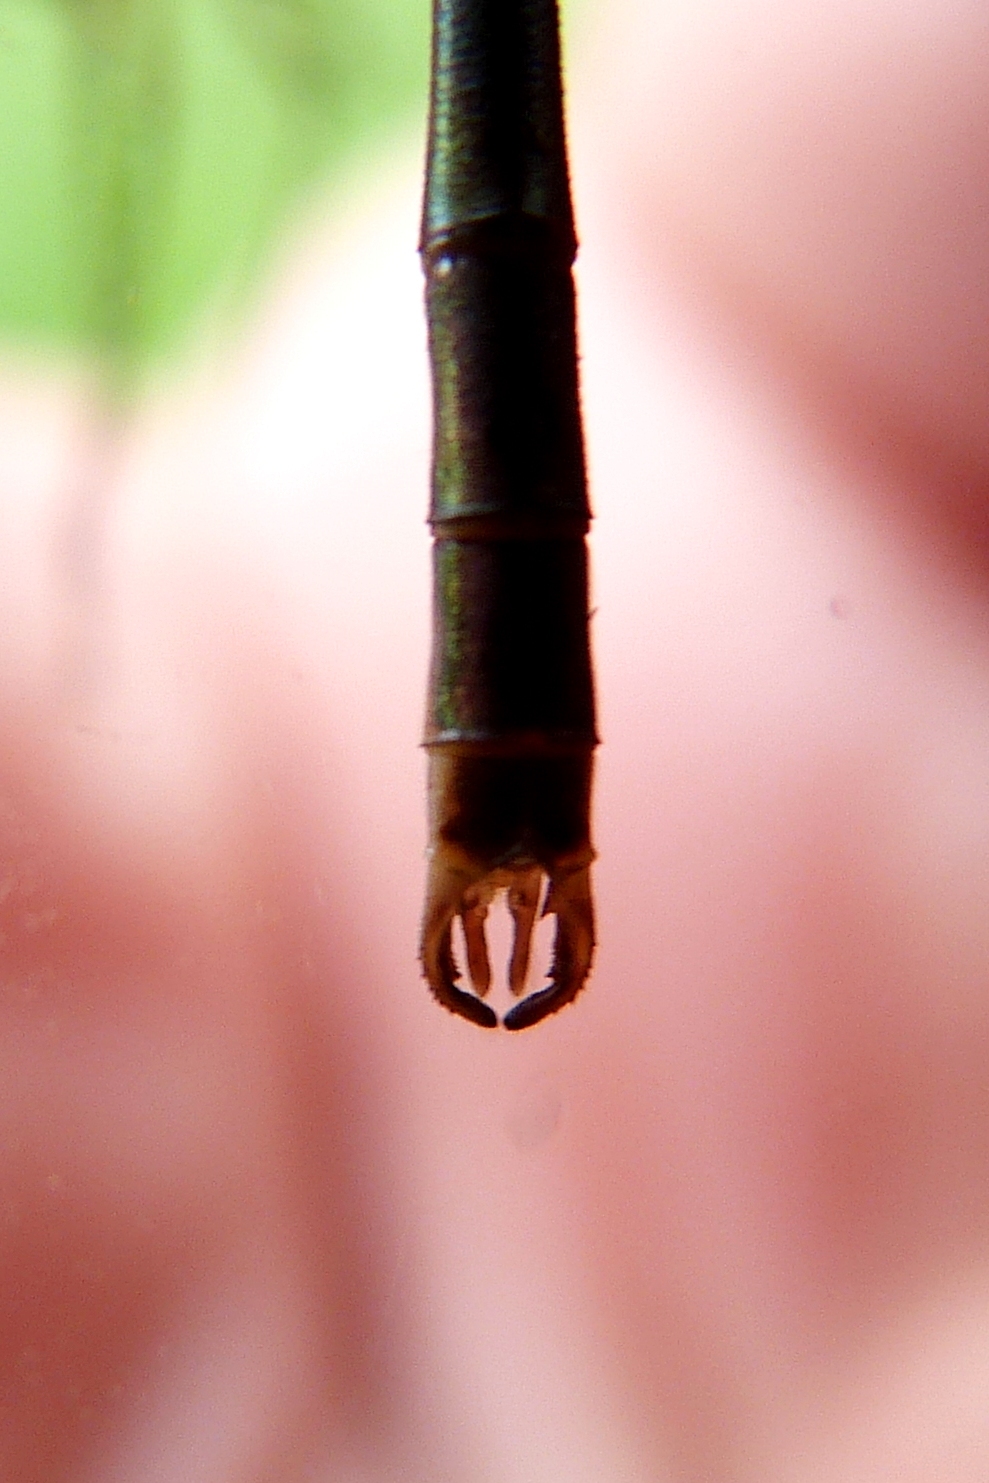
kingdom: Animalia
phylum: Arthropoda
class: Insecta
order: Odonata
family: Lestidae
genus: Lestes
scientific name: Lestes forcipatus
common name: Sweetflag spreadwing
